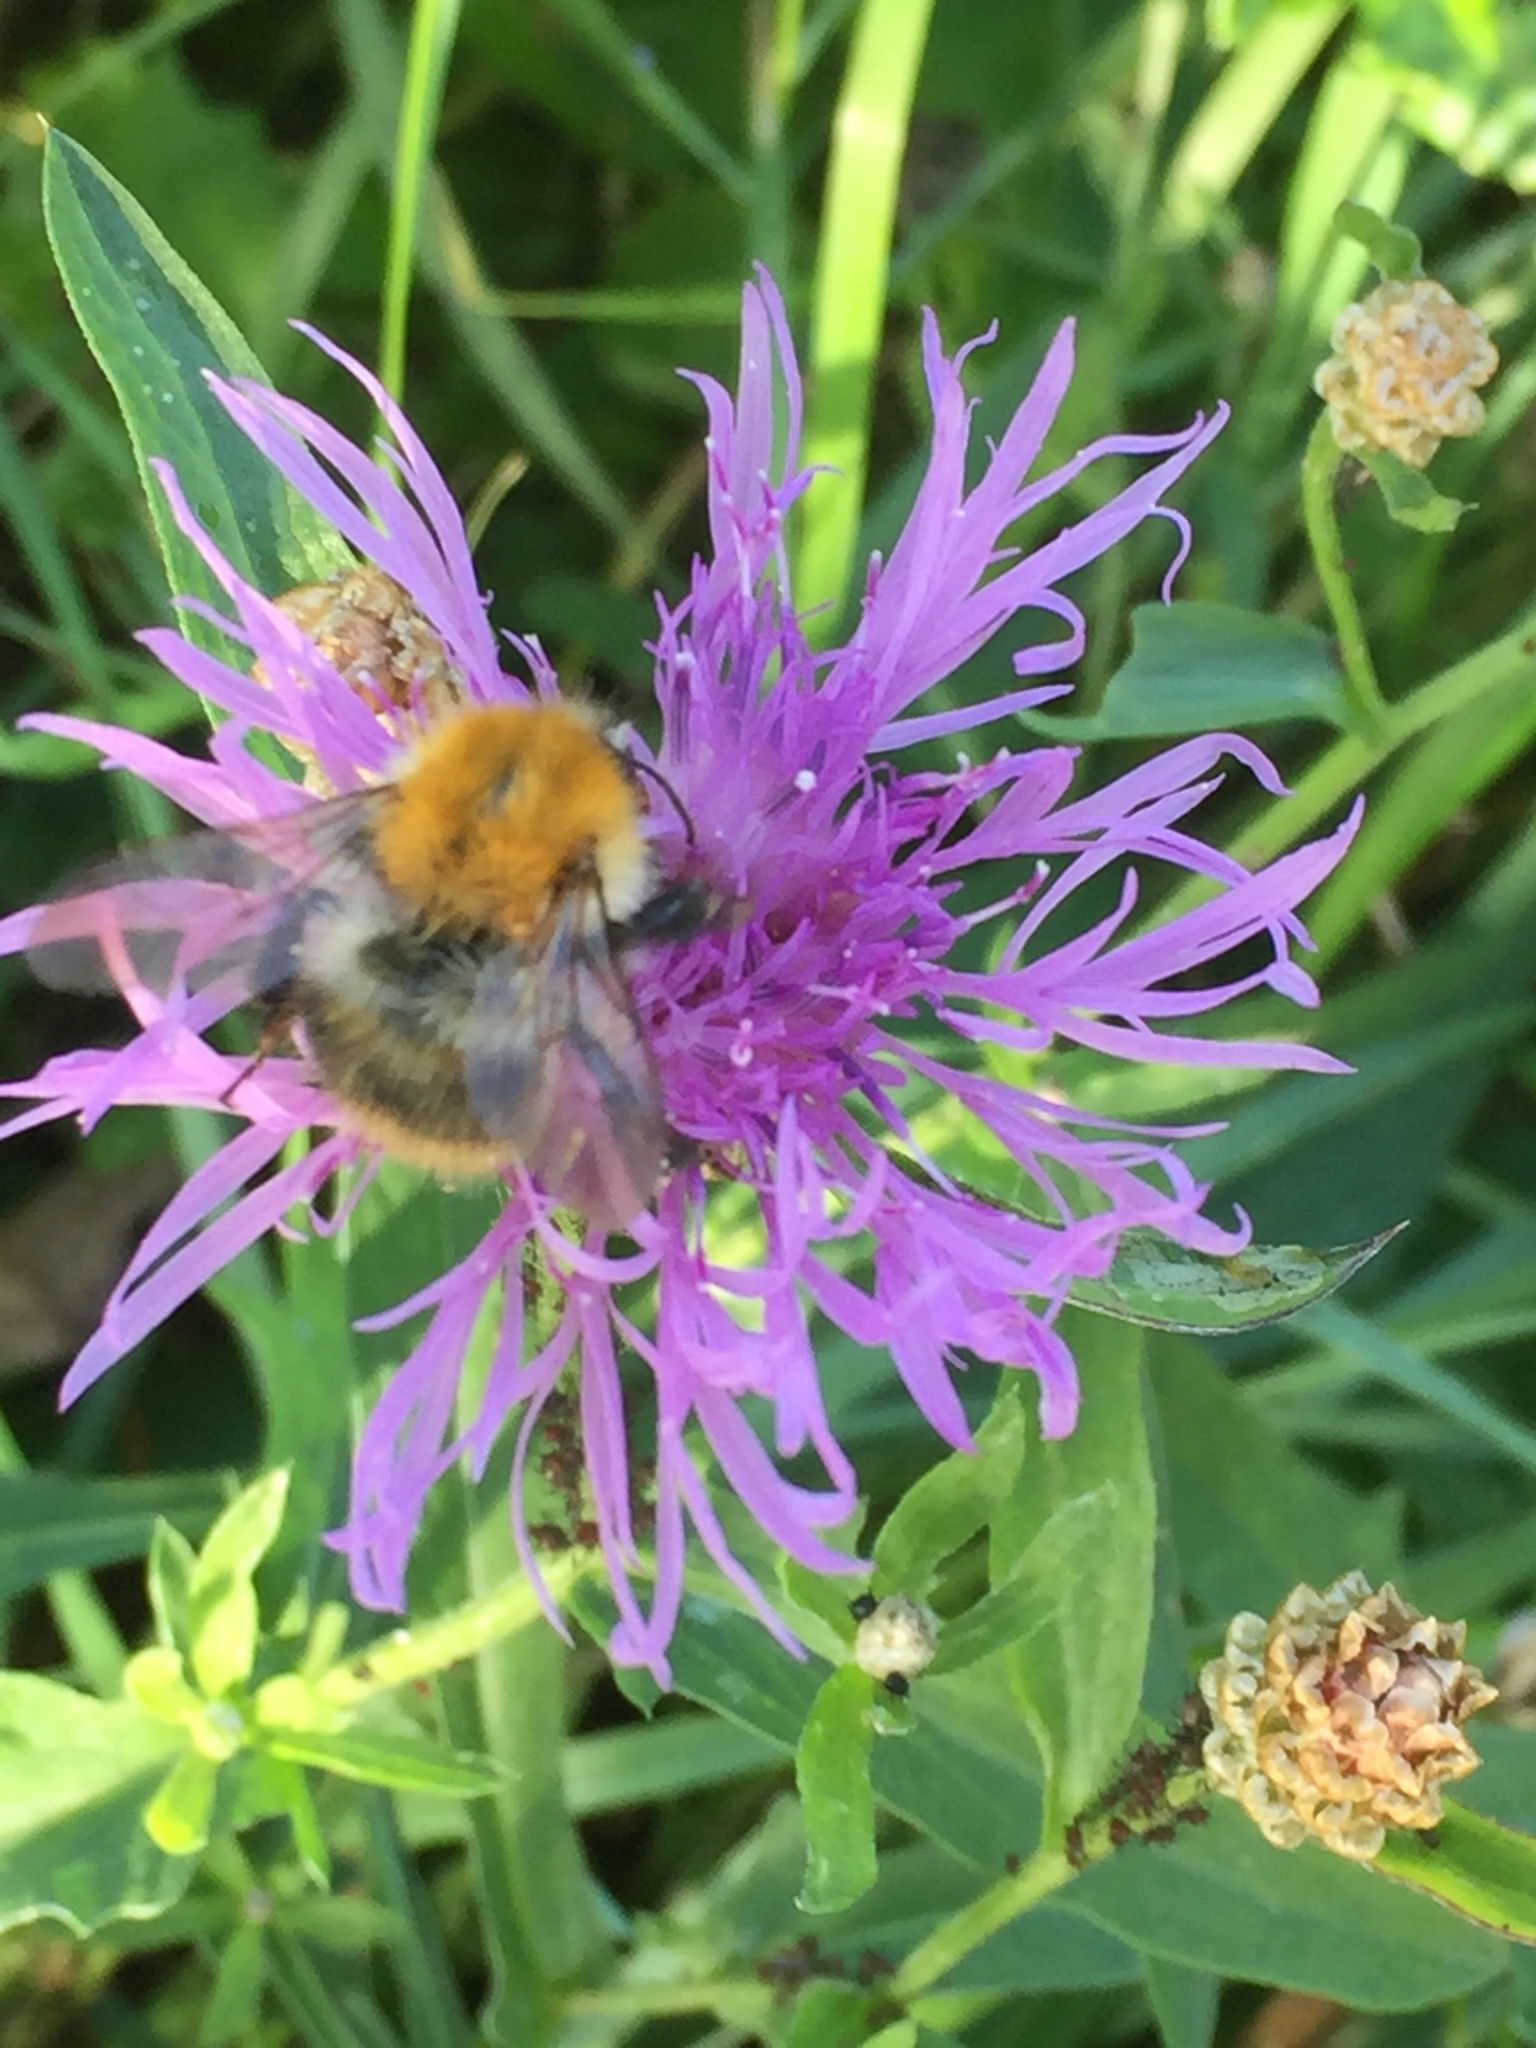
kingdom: Animalia
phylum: Arthropoda
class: Insecta
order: Hymenoptera
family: Apidae
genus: Bombus
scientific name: Bombus pascuorum
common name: Common carder bee
